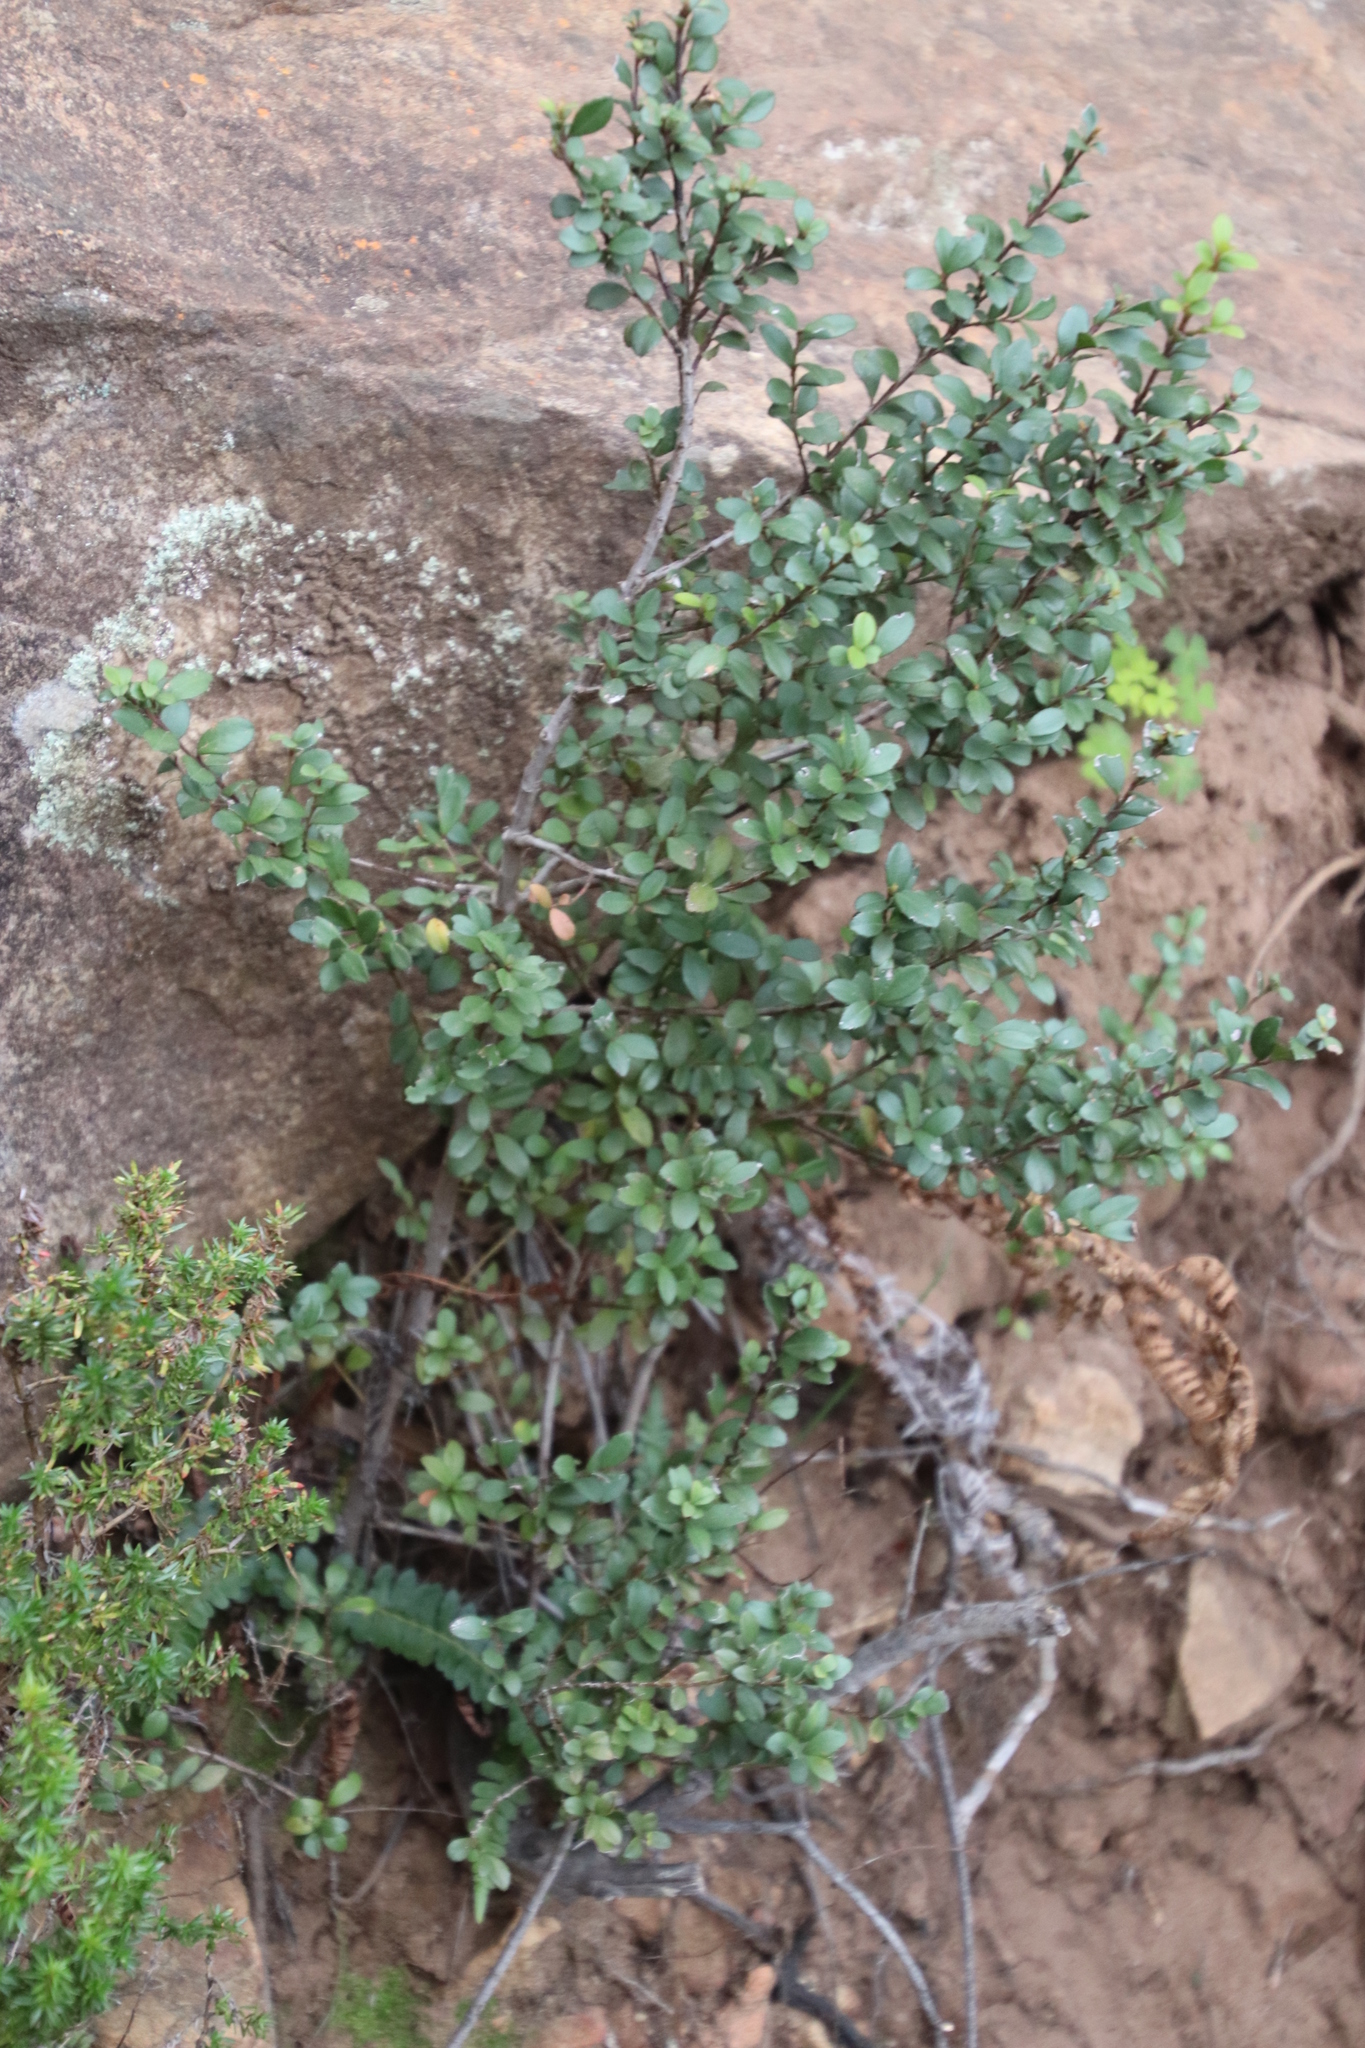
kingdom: Plantae
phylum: Tracheophyta
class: Magnoliopsida
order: Ericales
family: Primulaceae
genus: Myrsine
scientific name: Myrsine africana
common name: African-boxwood
